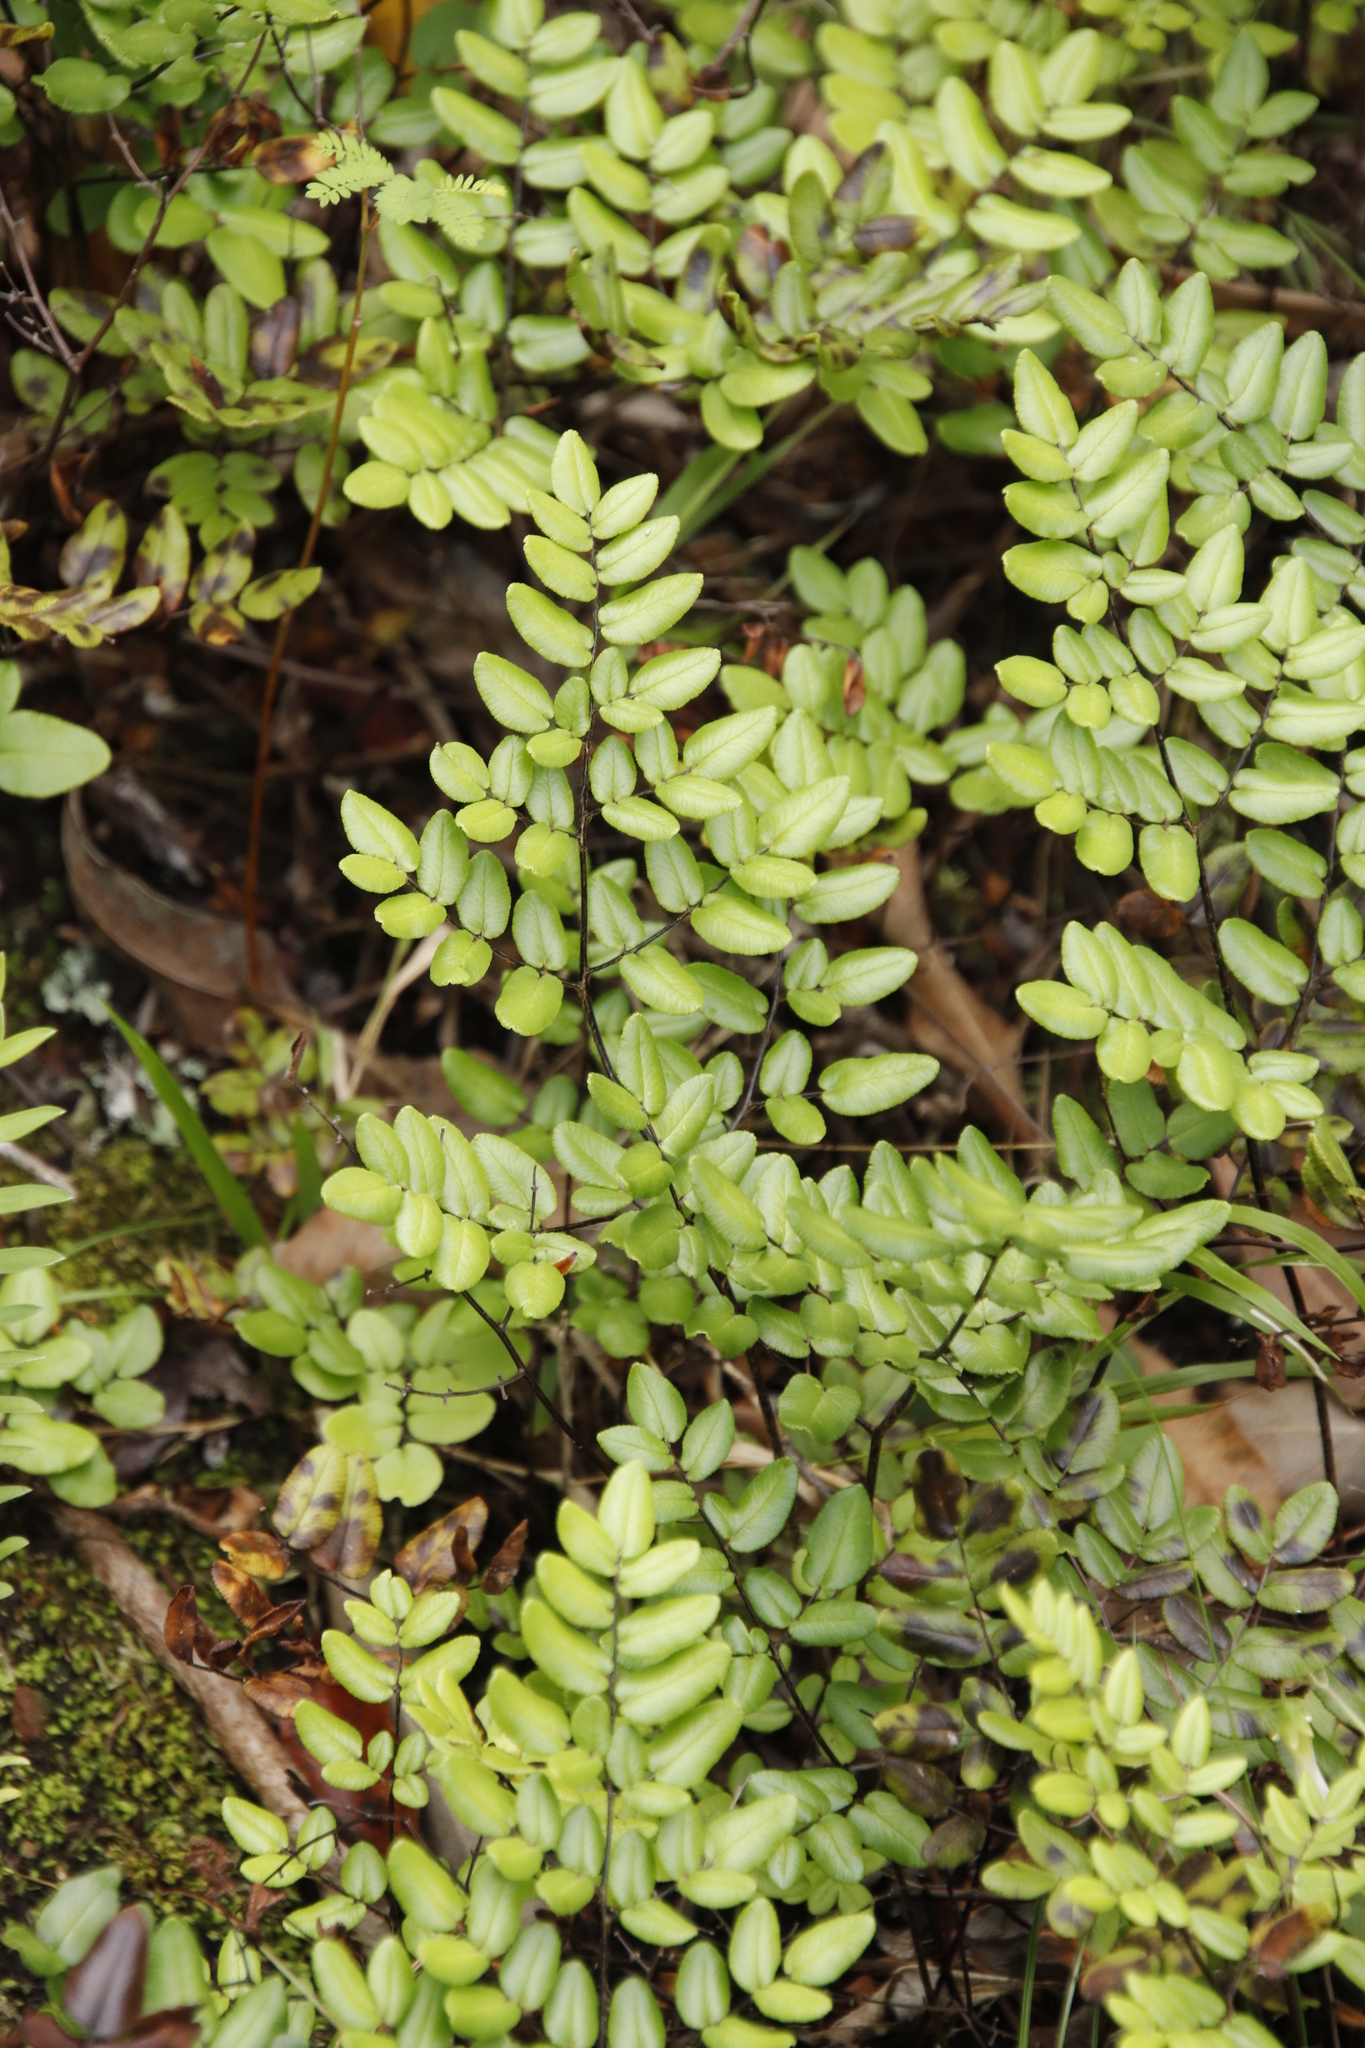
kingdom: Plantae
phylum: Tracheophyta
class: Polypodiopsida
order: Polypodiales
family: Pteridaceae
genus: Pellaea
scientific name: Pellaea pteroides
